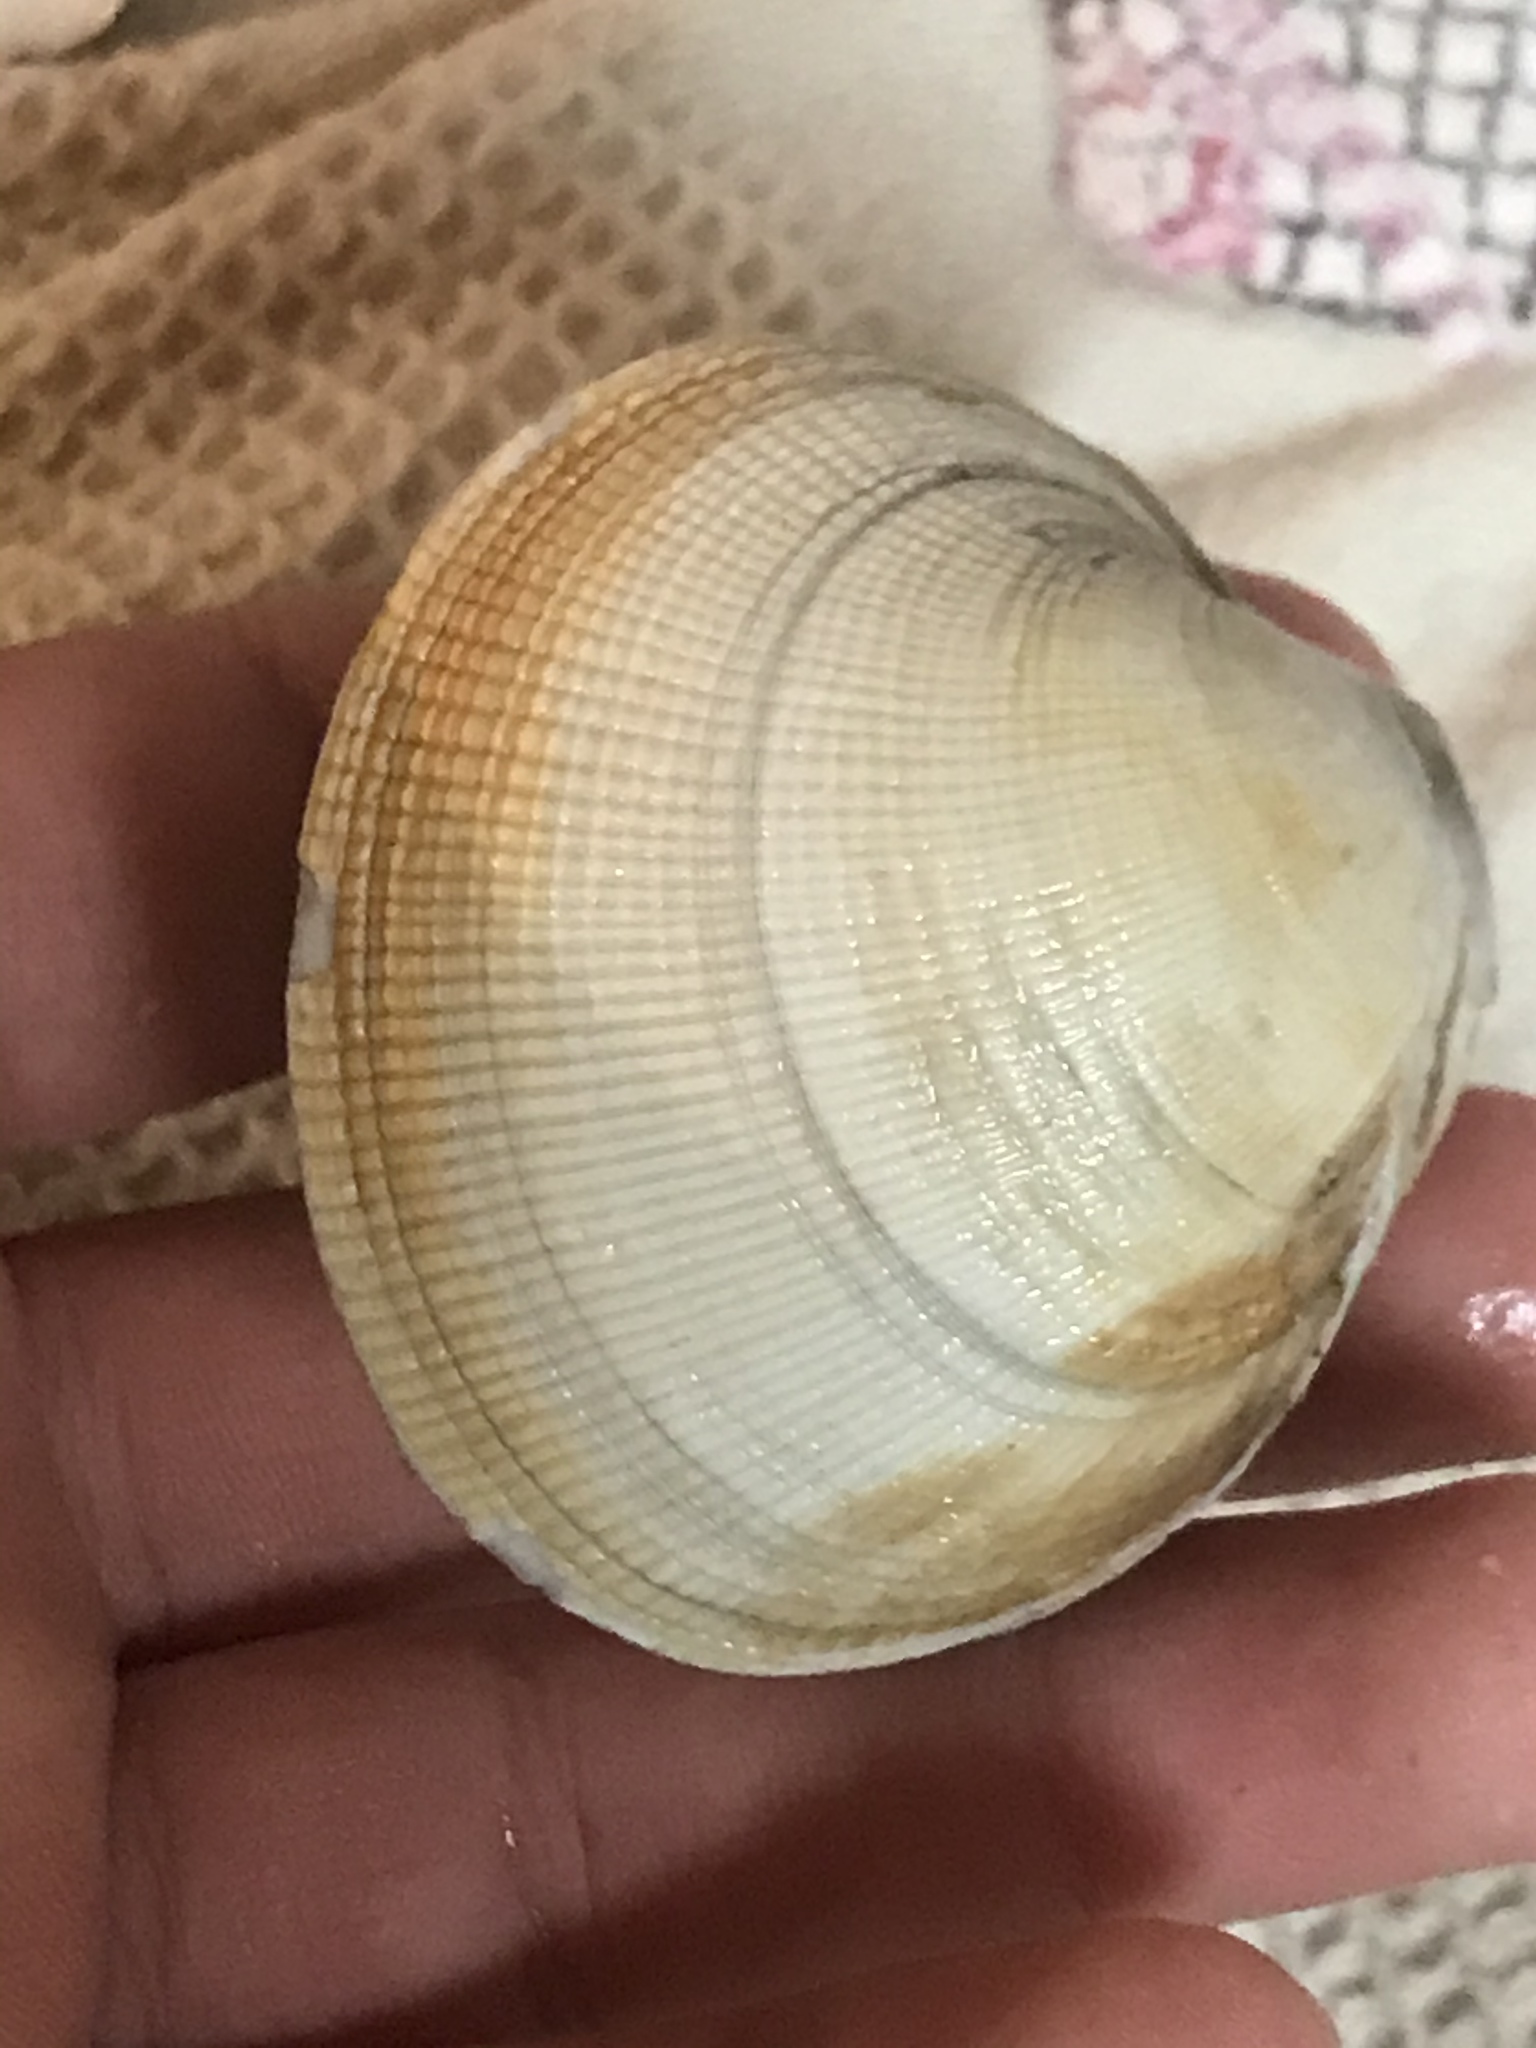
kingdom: Animalia
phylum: Mollusca
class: Bivalvia
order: Venerida
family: Veneridae
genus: Leukoma
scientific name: Leukoma staminea
